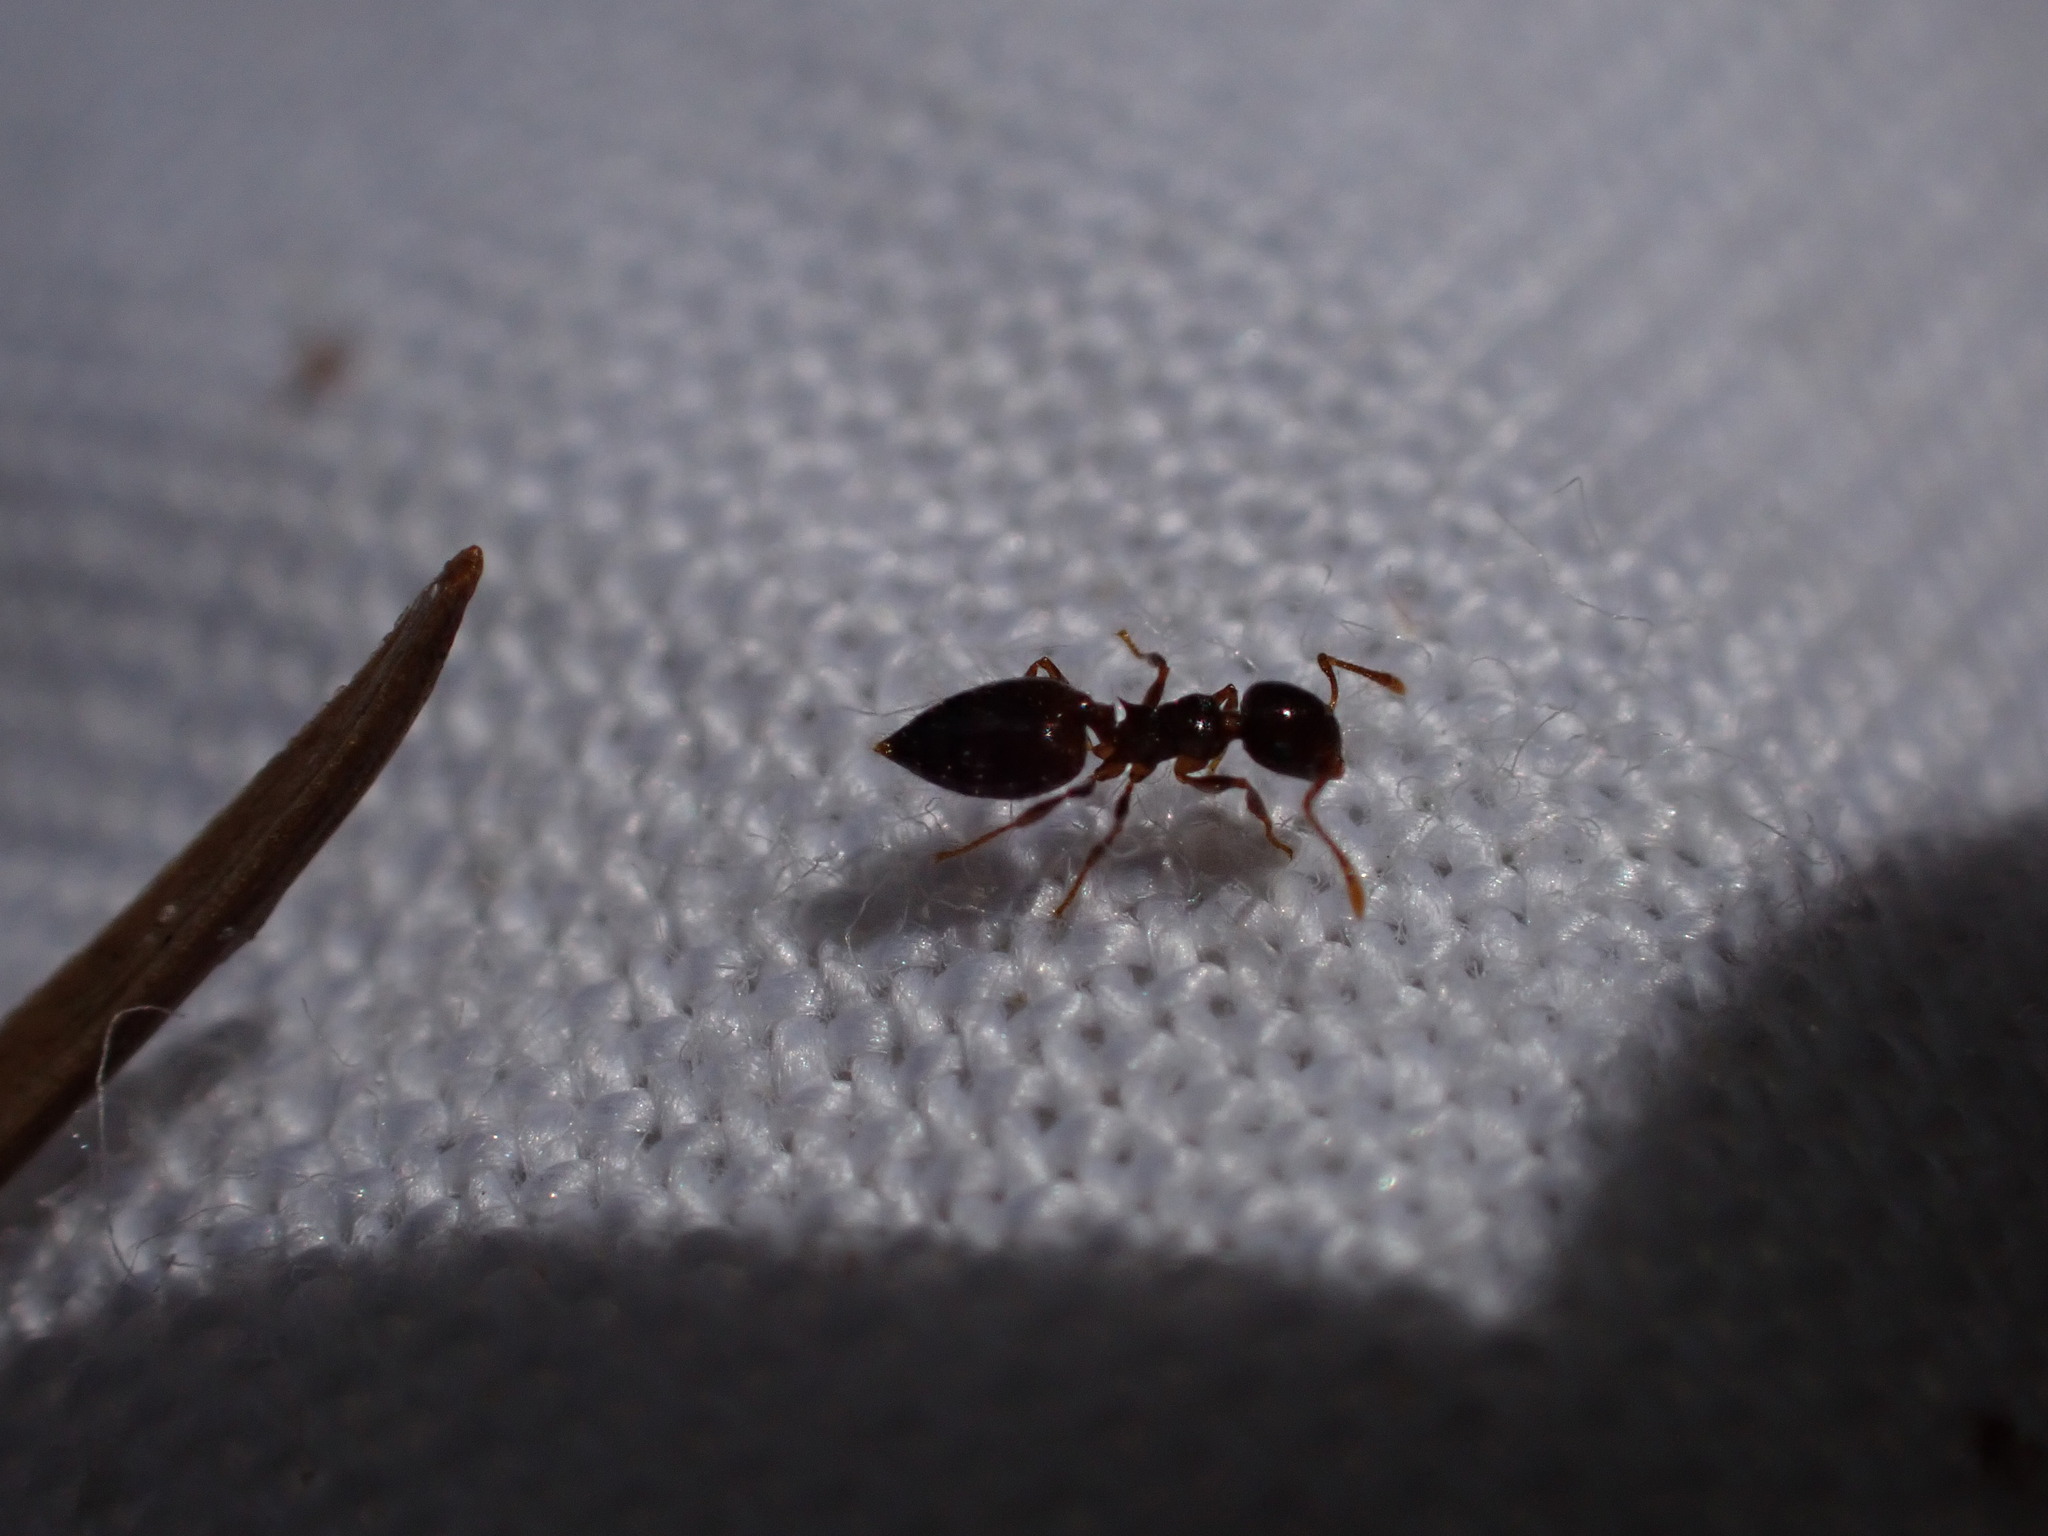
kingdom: Animalia
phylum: Arthropoda
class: Insecta
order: Hymenoptera
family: Formicidae
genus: Crematogaster
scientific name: Crematogaster sordidula
